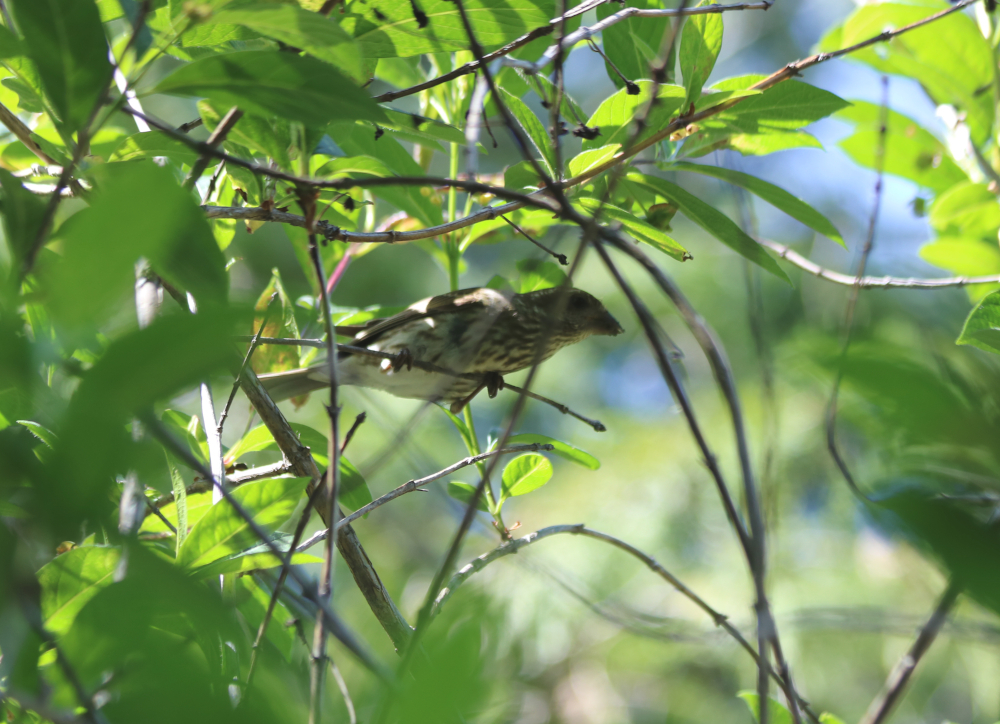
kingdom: Animalia
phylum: Chordata
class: Aves
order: Passeriformes
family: Fringillidae
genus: Haemorhous
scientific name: Haemorhous purpureus
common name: Purple finch
